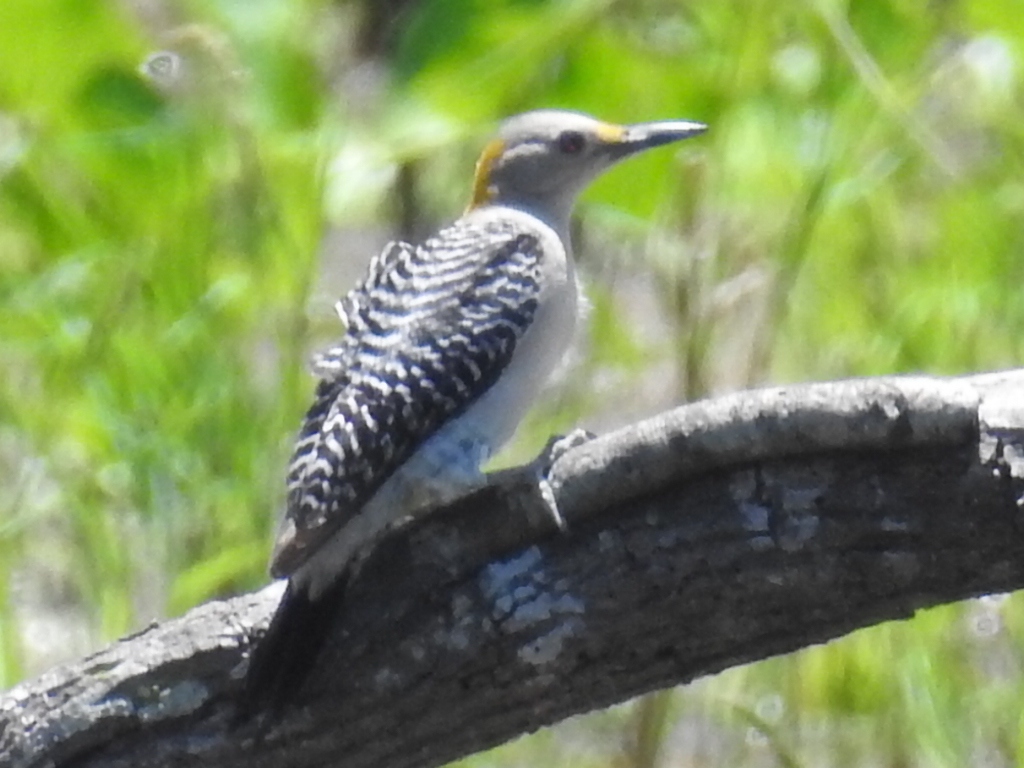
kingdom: Animalia
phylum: Chordata
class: Aves
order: Piciformes
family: Picidae
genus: Melanerpes
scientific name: Melanerpes aurifrons
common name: Golden-fronted woodpecker
